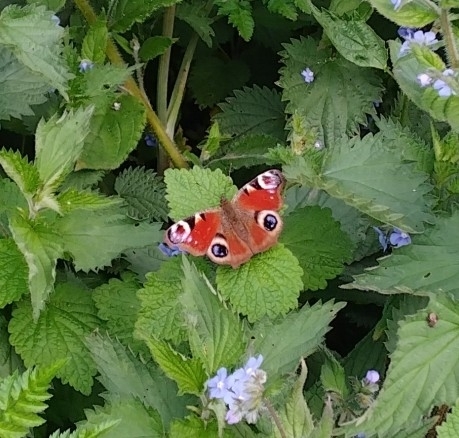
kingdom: Animalia
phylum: Arthropoda
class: Insecta
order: Lepidoptera
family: Nymphalidae
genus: Aglais
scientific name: Aglais io
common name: Peacock
